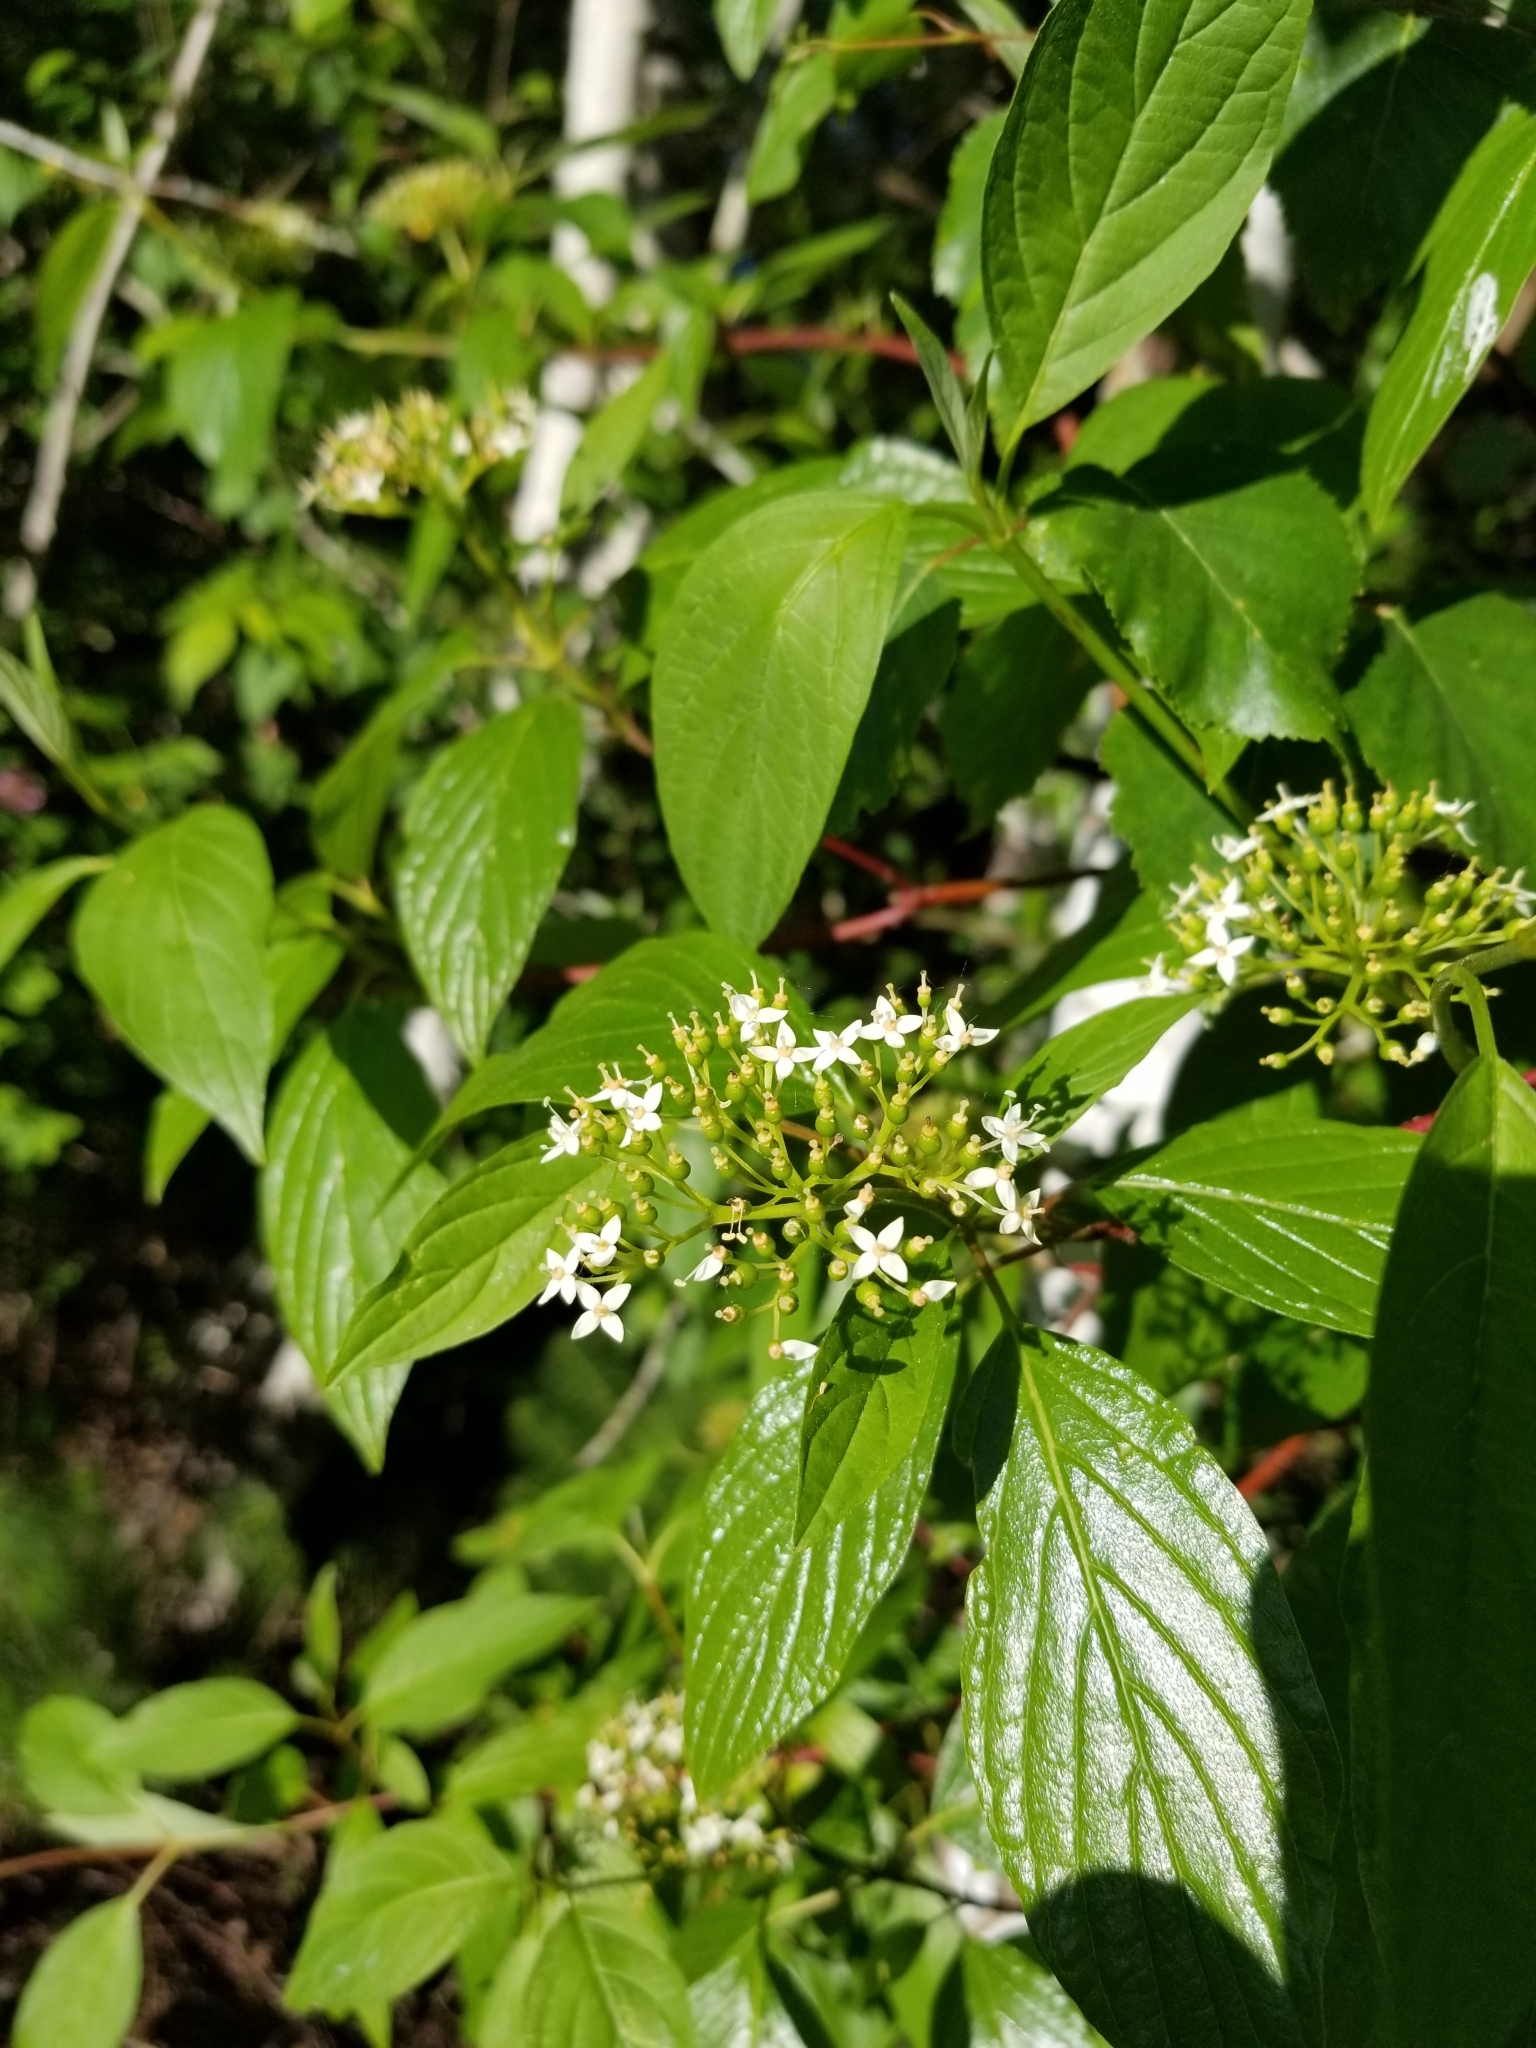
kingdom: Plantae
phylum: Tracheophyta
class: Magnoliopsida
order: Cornales
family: Cornaceae
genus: Cornus
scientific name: Cornus sericea
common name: Red-osier dogwood
